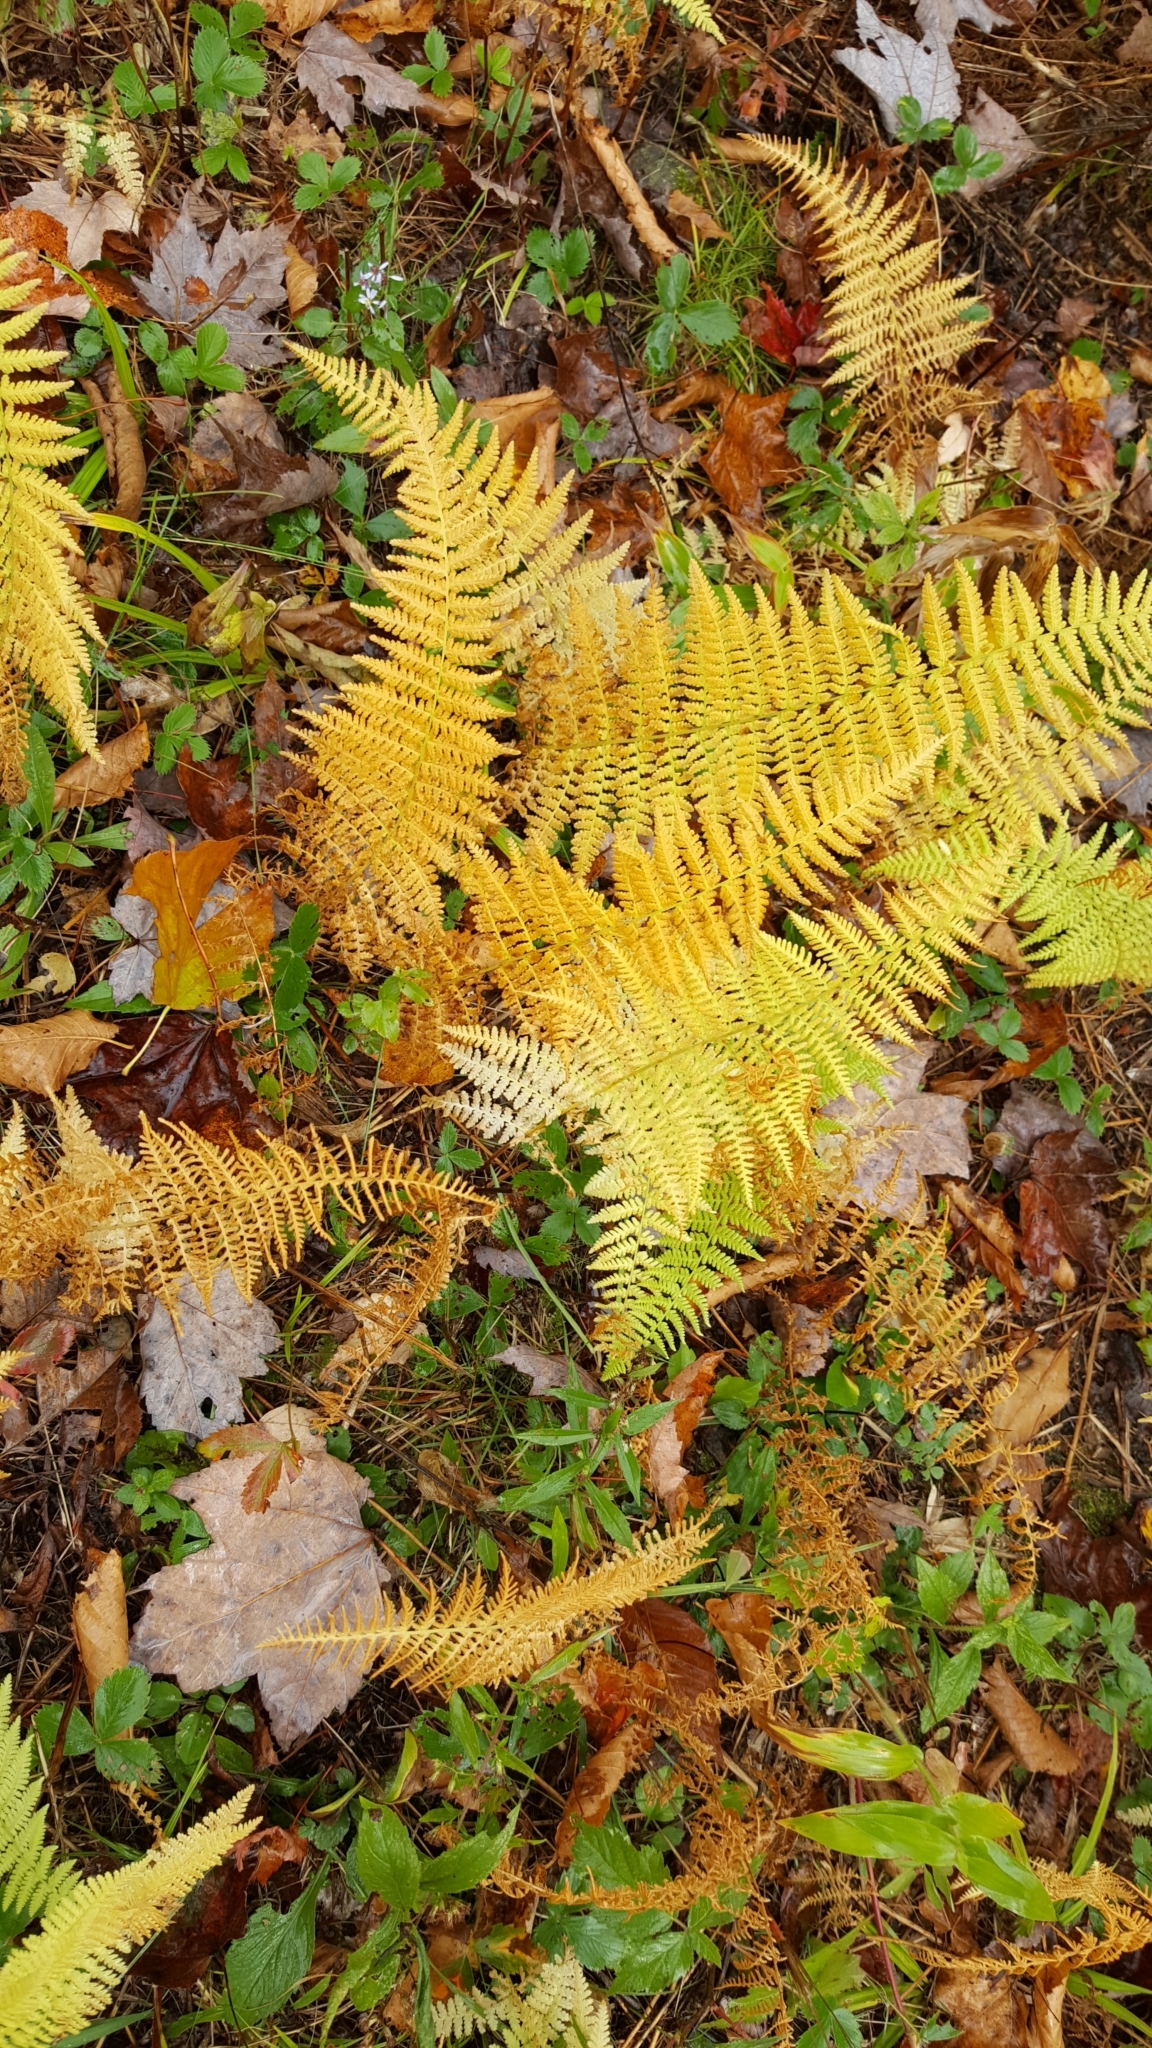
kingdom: Plantae
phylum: Tracheophyta
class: Polypodiopsida
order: Polypodiales
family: Dennstaedtiaceae
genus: Sitobolium
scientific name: Sitobolium punctilobum
